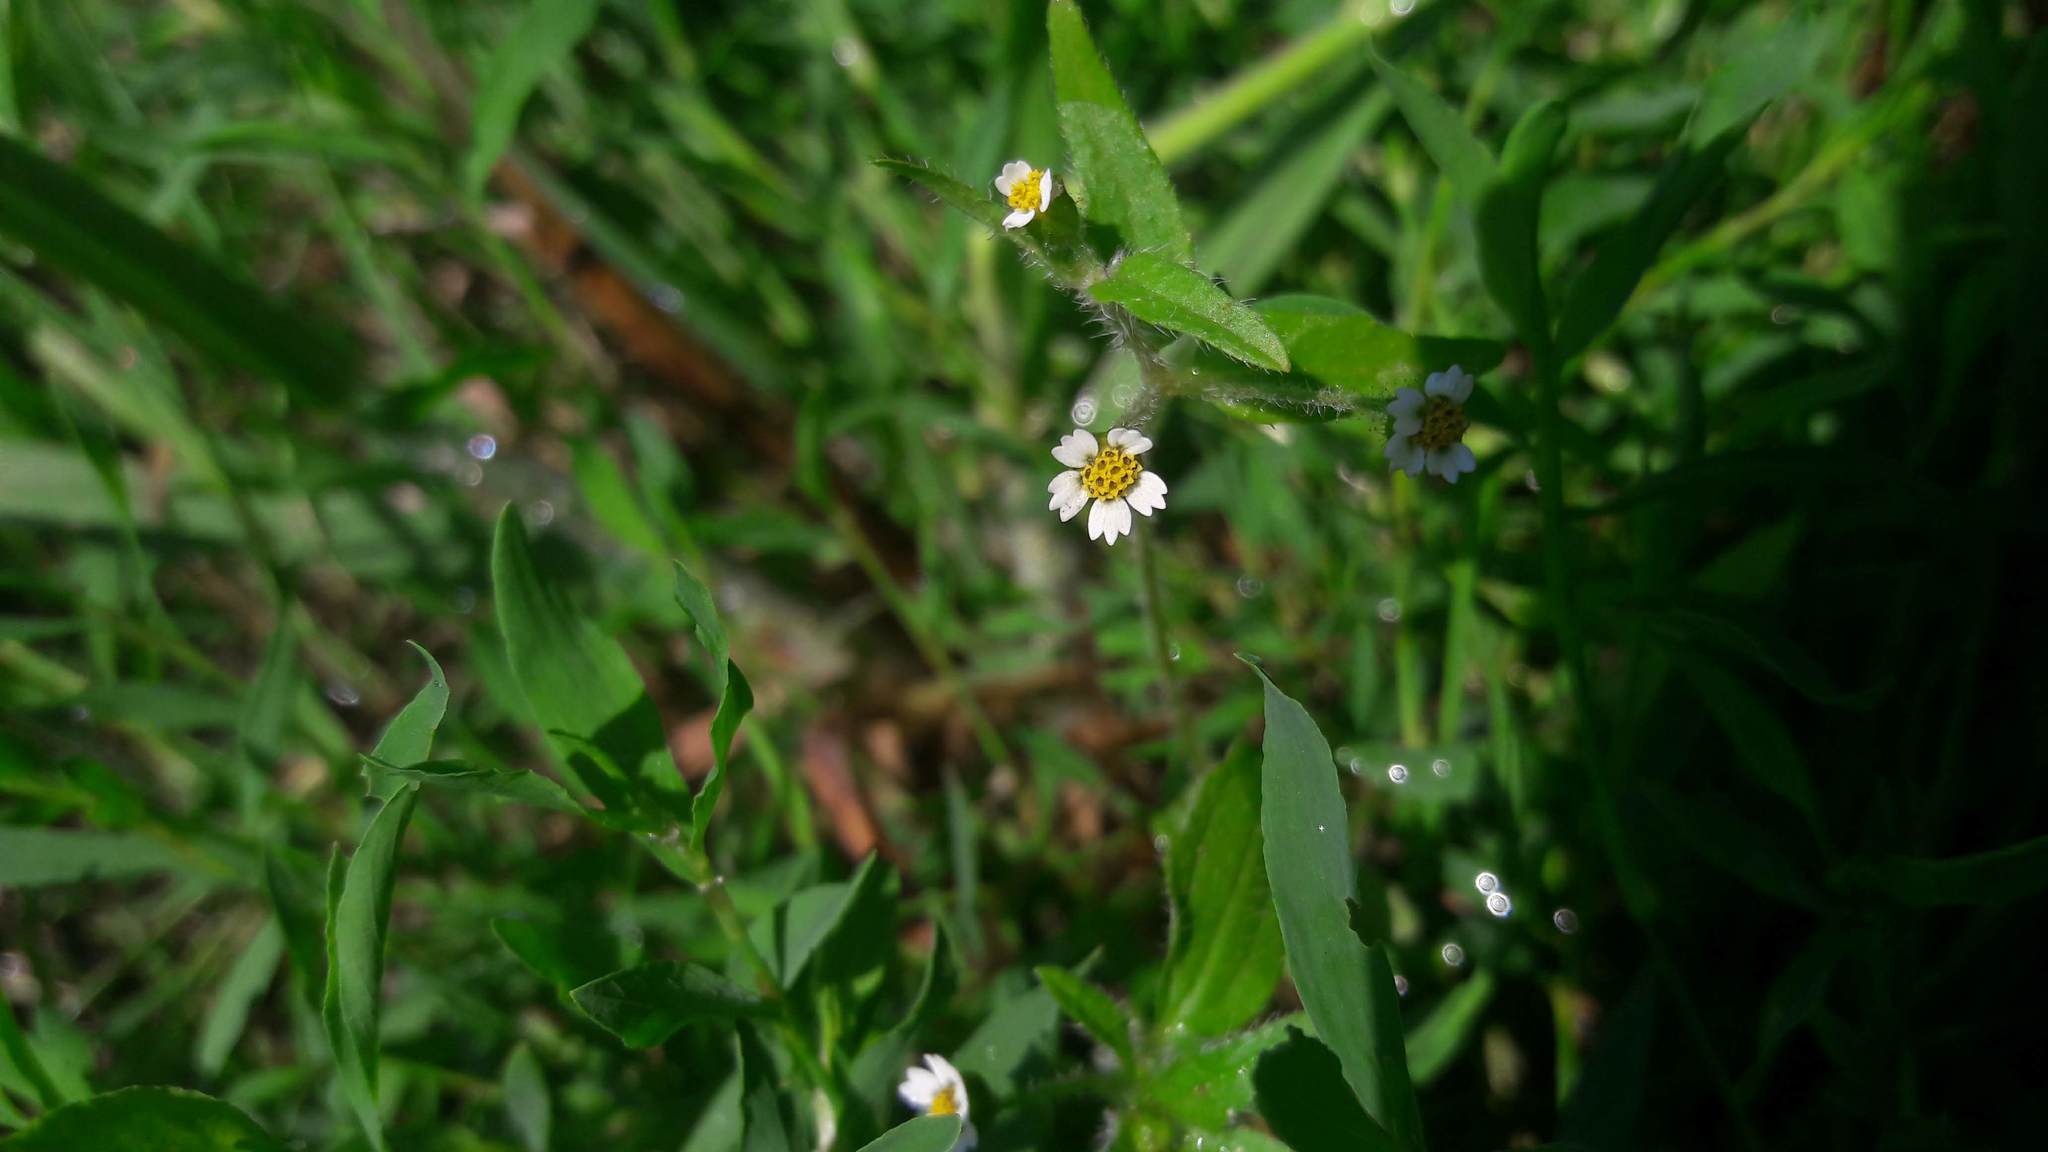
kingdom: Plantae
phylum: Tracheophyta
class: Magnoliopsida
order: Asterales
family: Asteraceae
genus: Galinsoga
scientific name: Galinsoga quadriradiata
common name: Shaggy soldier
